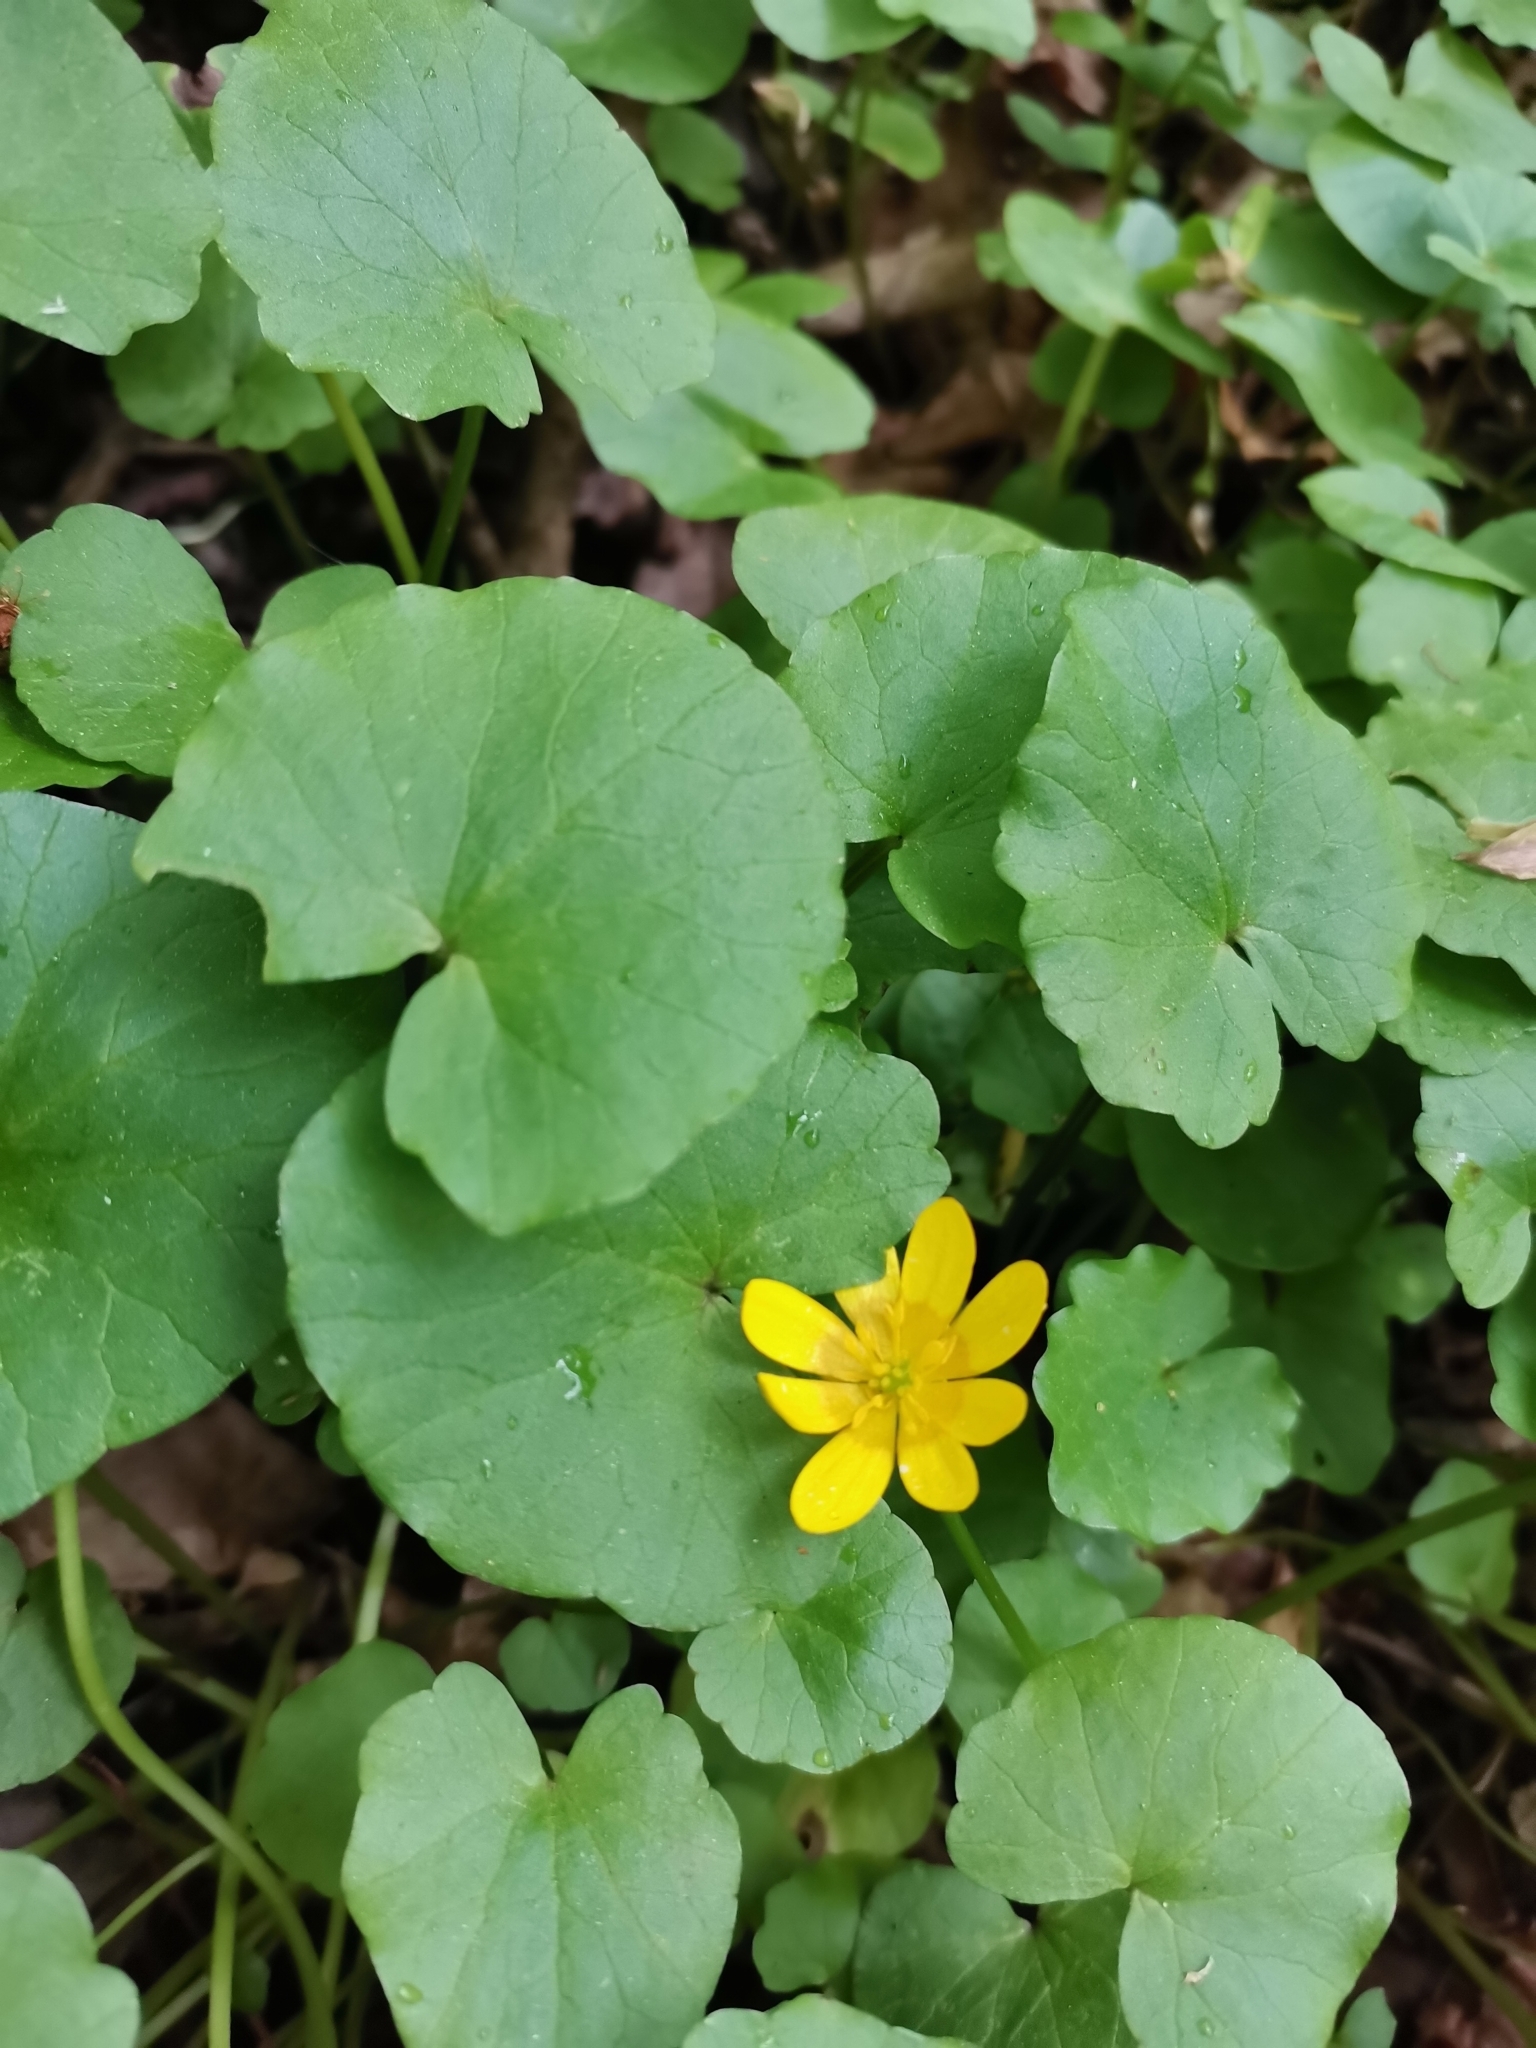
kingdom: Plantae
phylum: Tracheophyta
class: Magnoliopsida
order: Ranunculales
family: Ranunculaceae
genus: Ficaria
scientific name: Ficaria verna
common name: Lesser celandine
